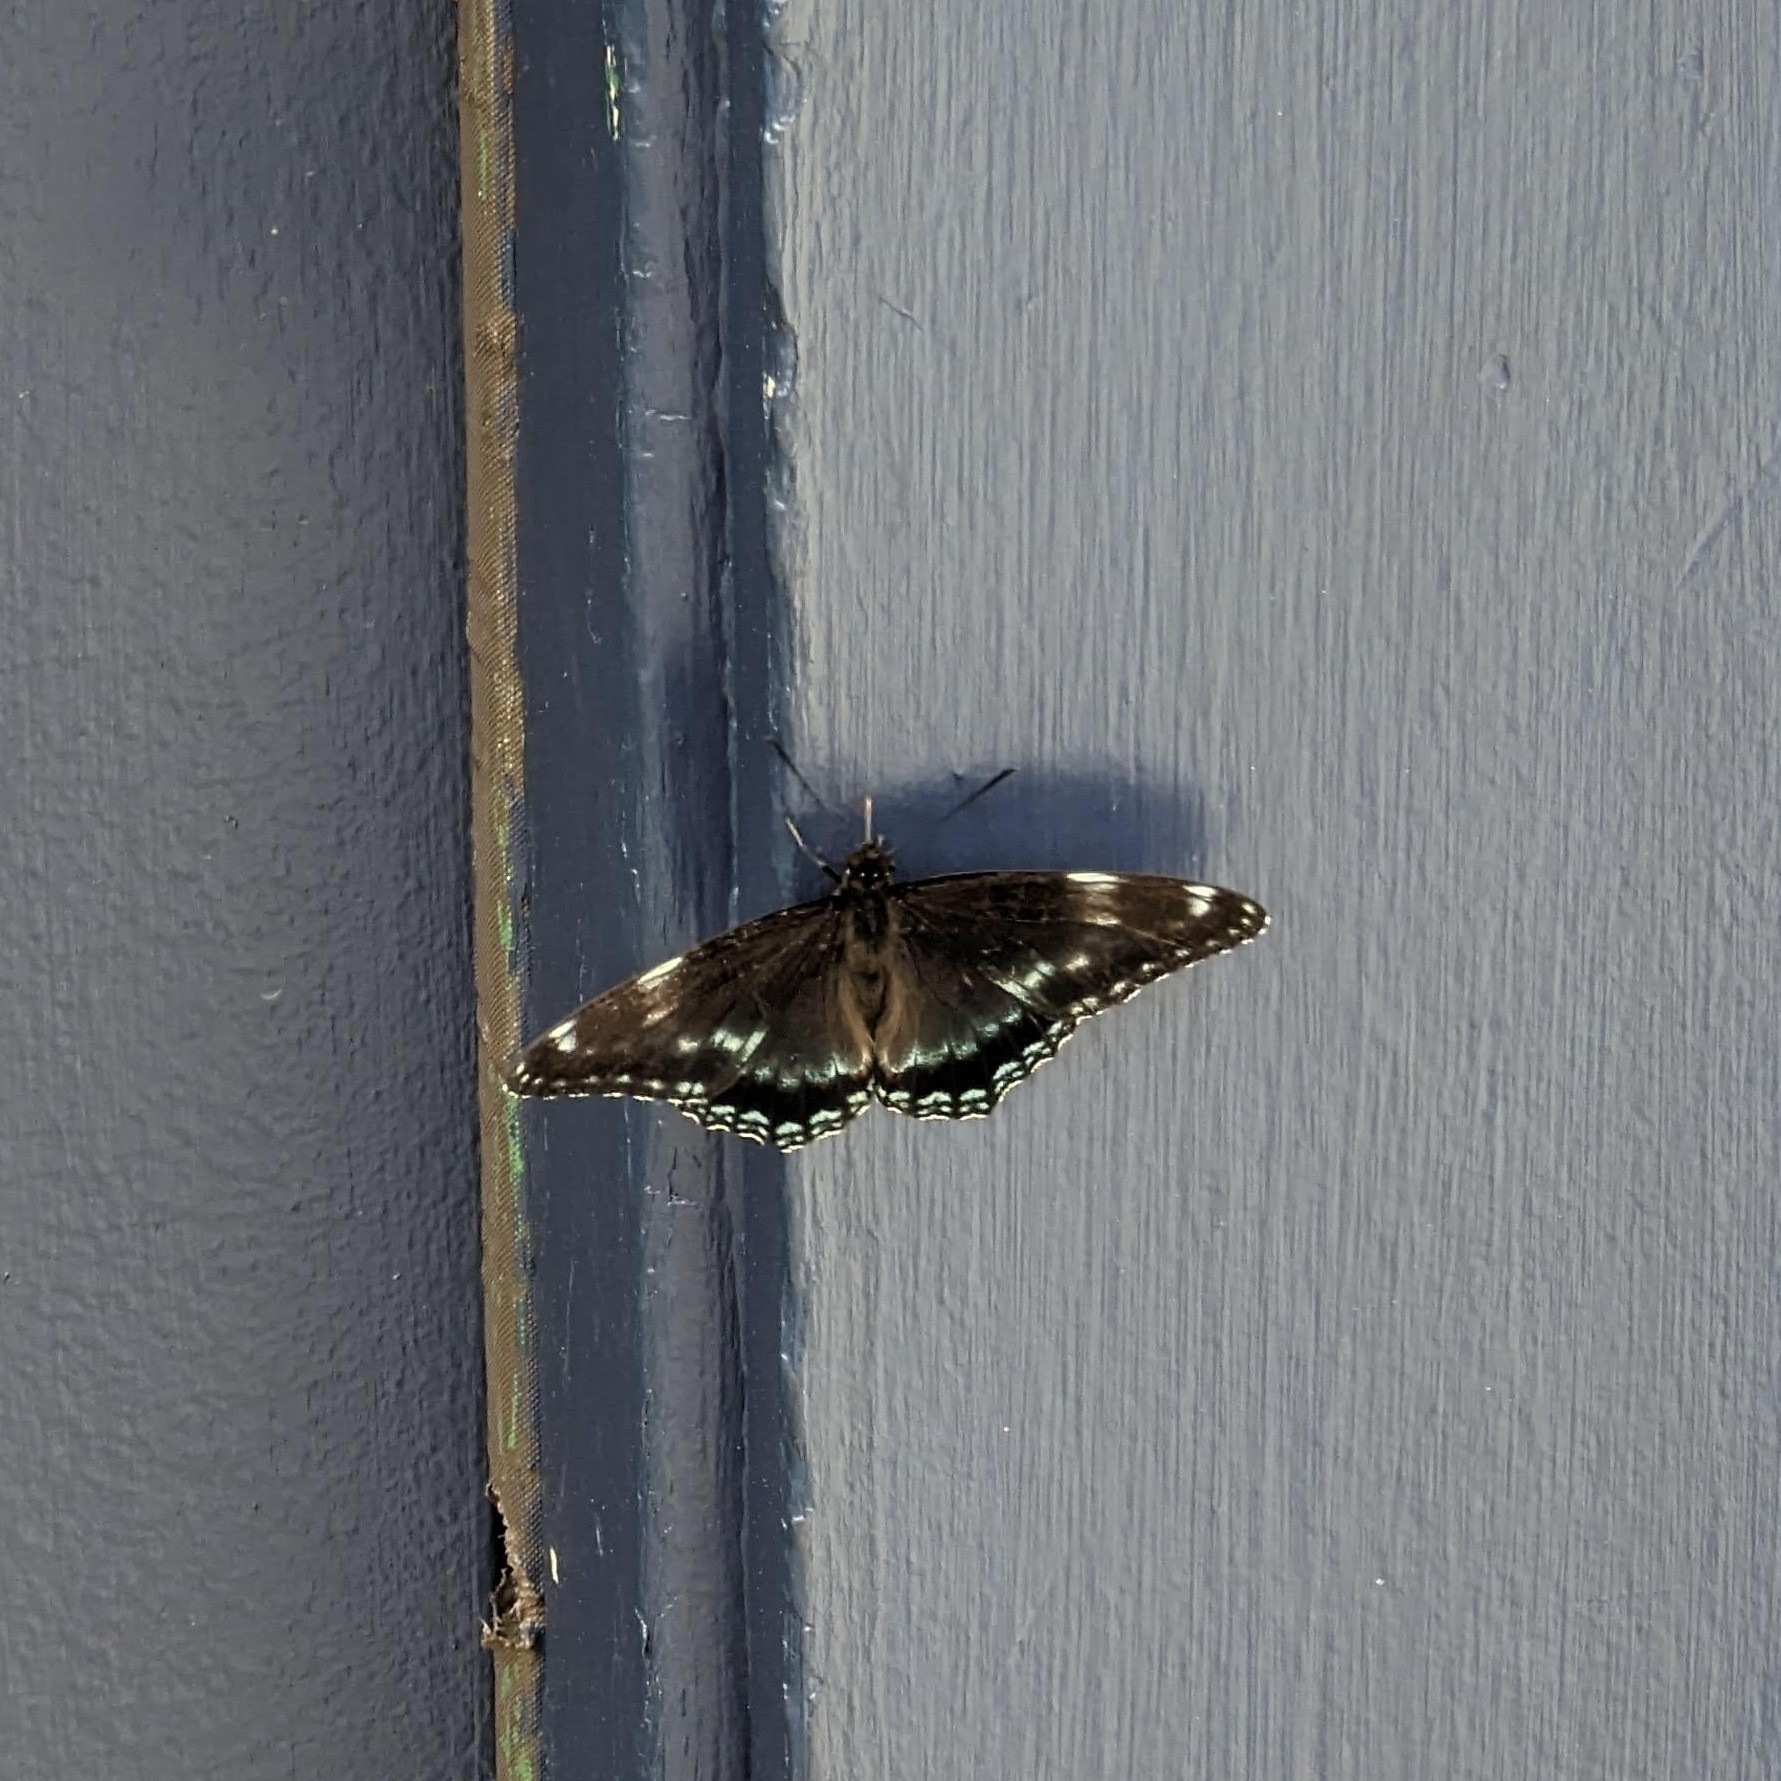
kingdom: Animalia
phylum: Arthropoda
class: Insecta
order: Lepidoptera
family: Nymphalidae
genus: Limenitis
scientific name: Limenitis
